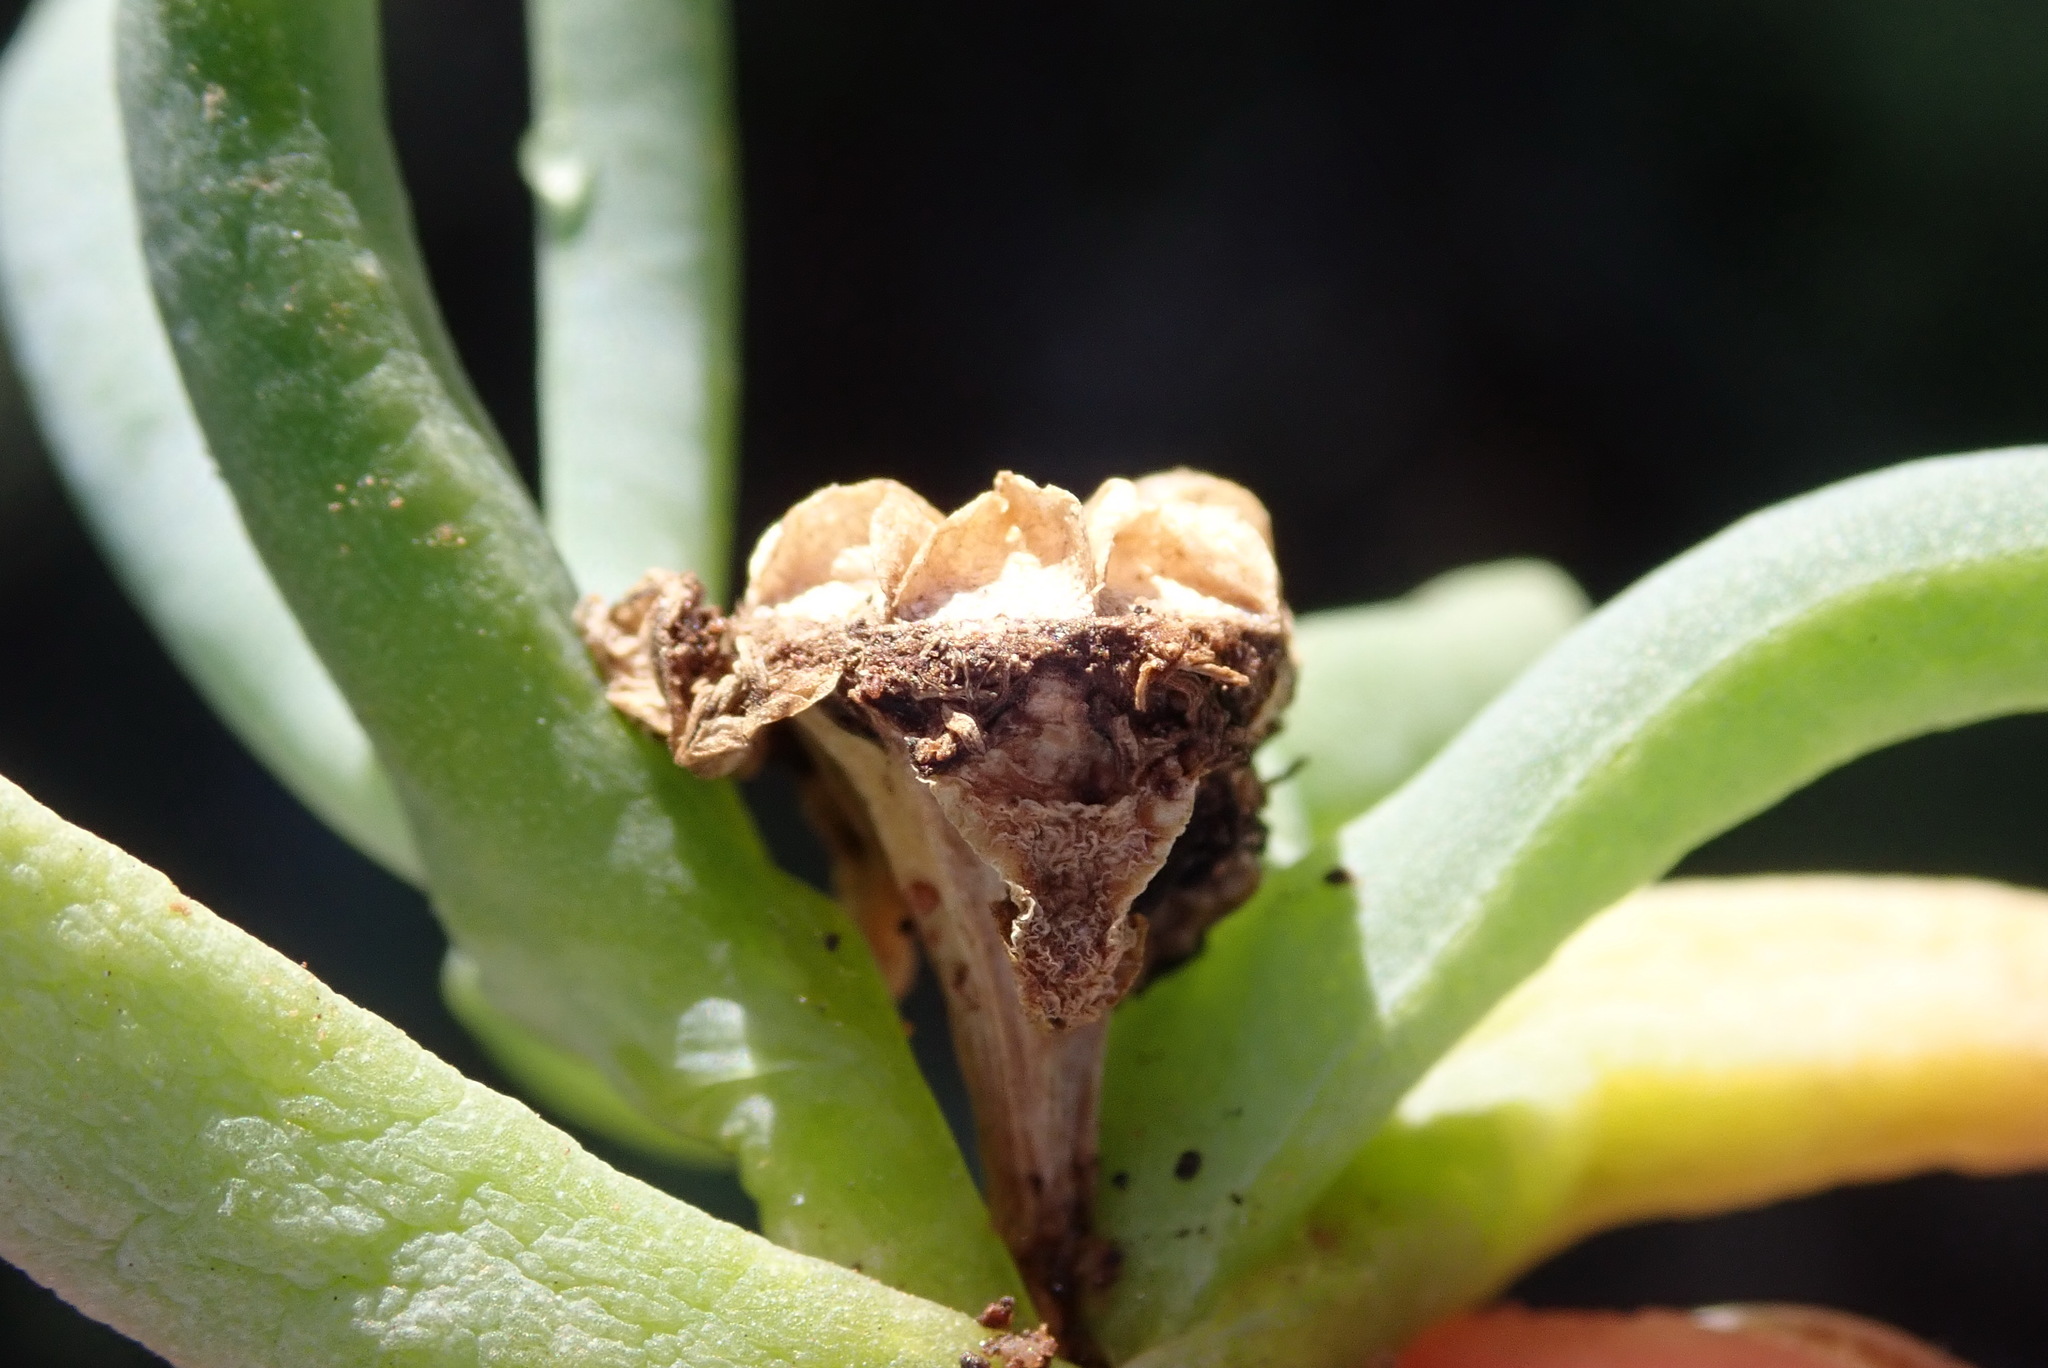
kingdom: Plantae
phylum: Tracheophyta
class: Magnoliopsida
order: Caryophyllales
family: Aizoaceae
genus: Malephora
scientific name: Malephora lutea
